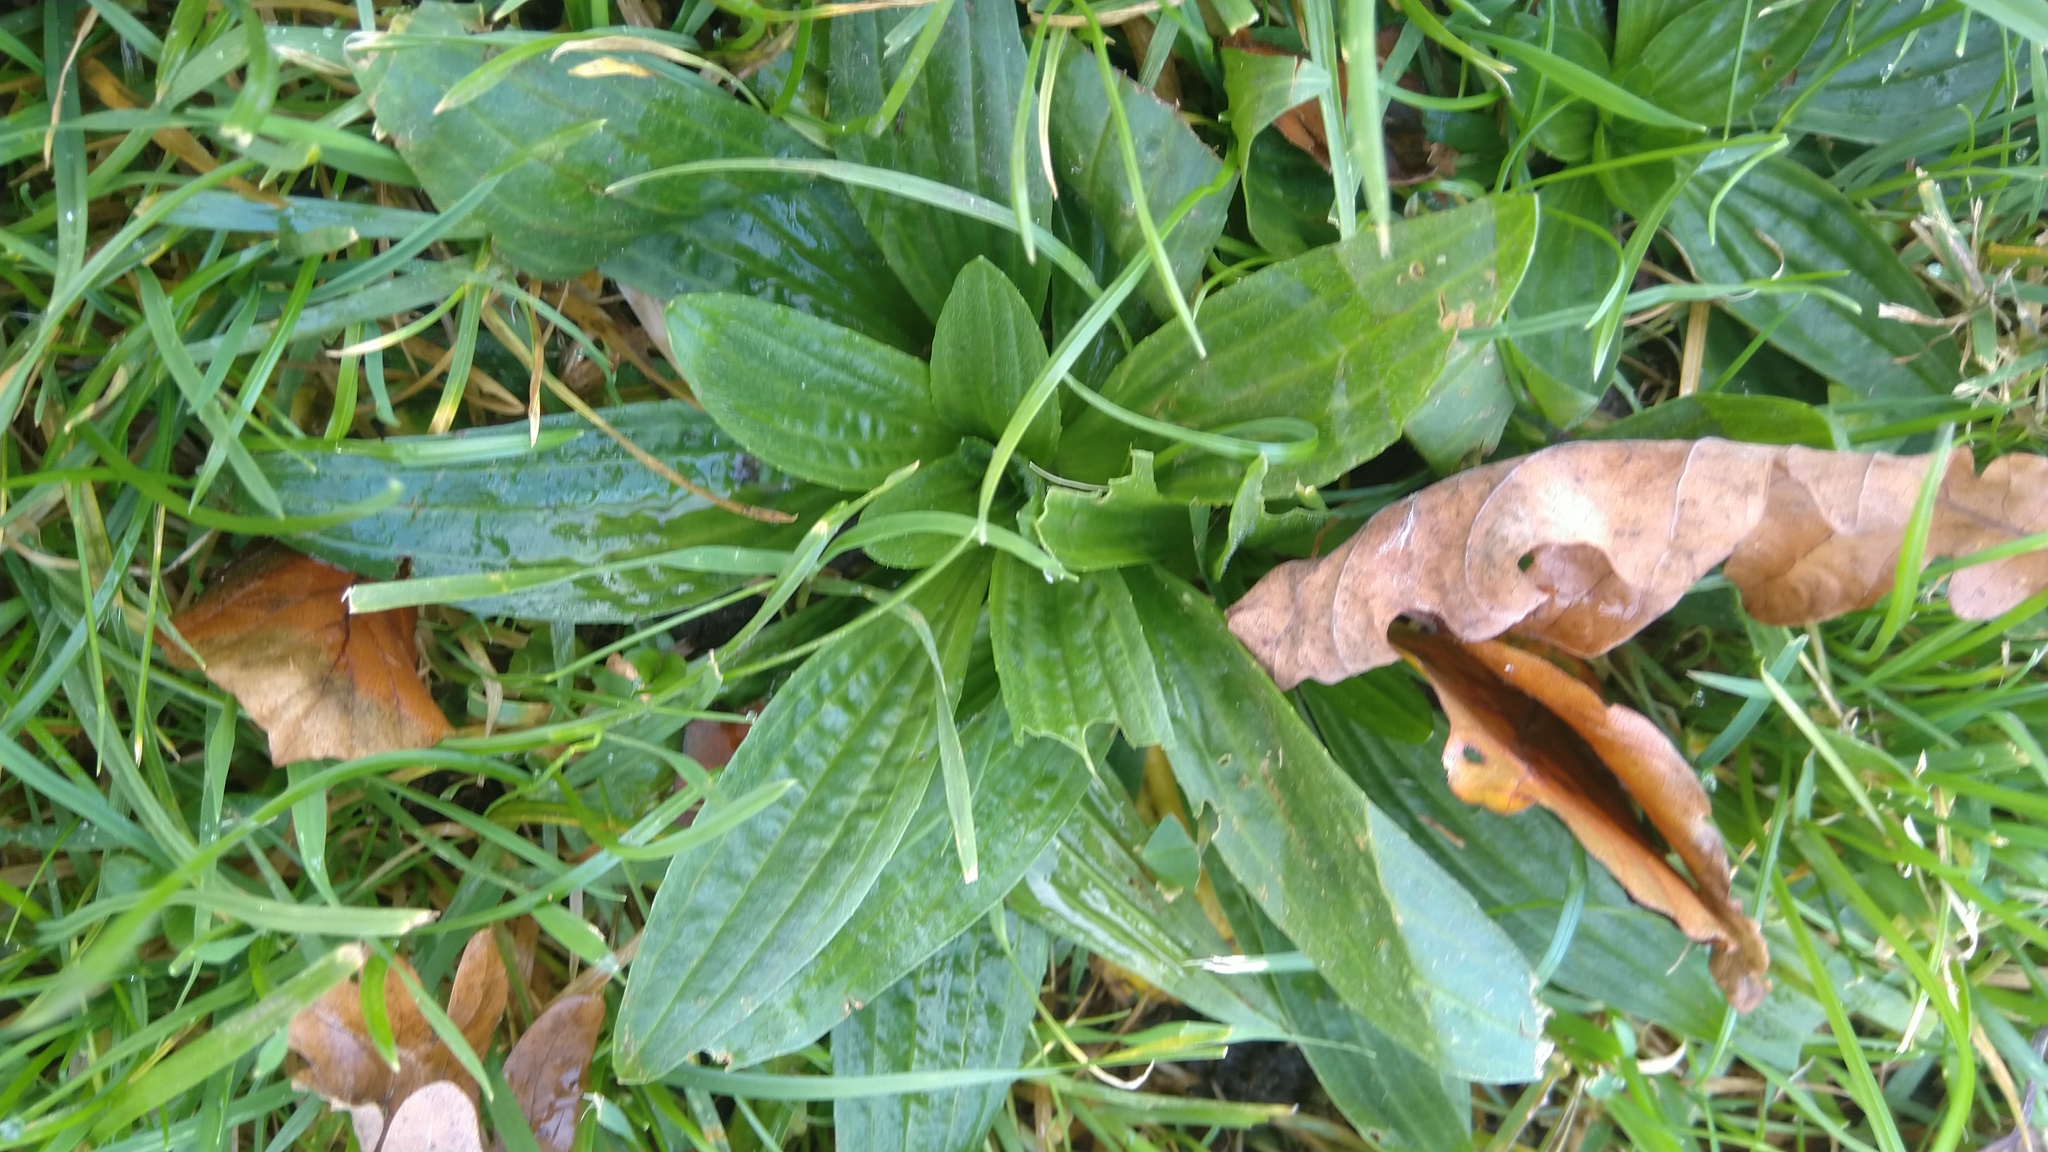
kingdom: Plantae
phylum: Tracheophyta
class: Magnoliopsida
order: Lamiales
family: Plantaginaceae
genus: Plantago
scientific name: Plantago lanceolata
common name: Ribwort plantain
